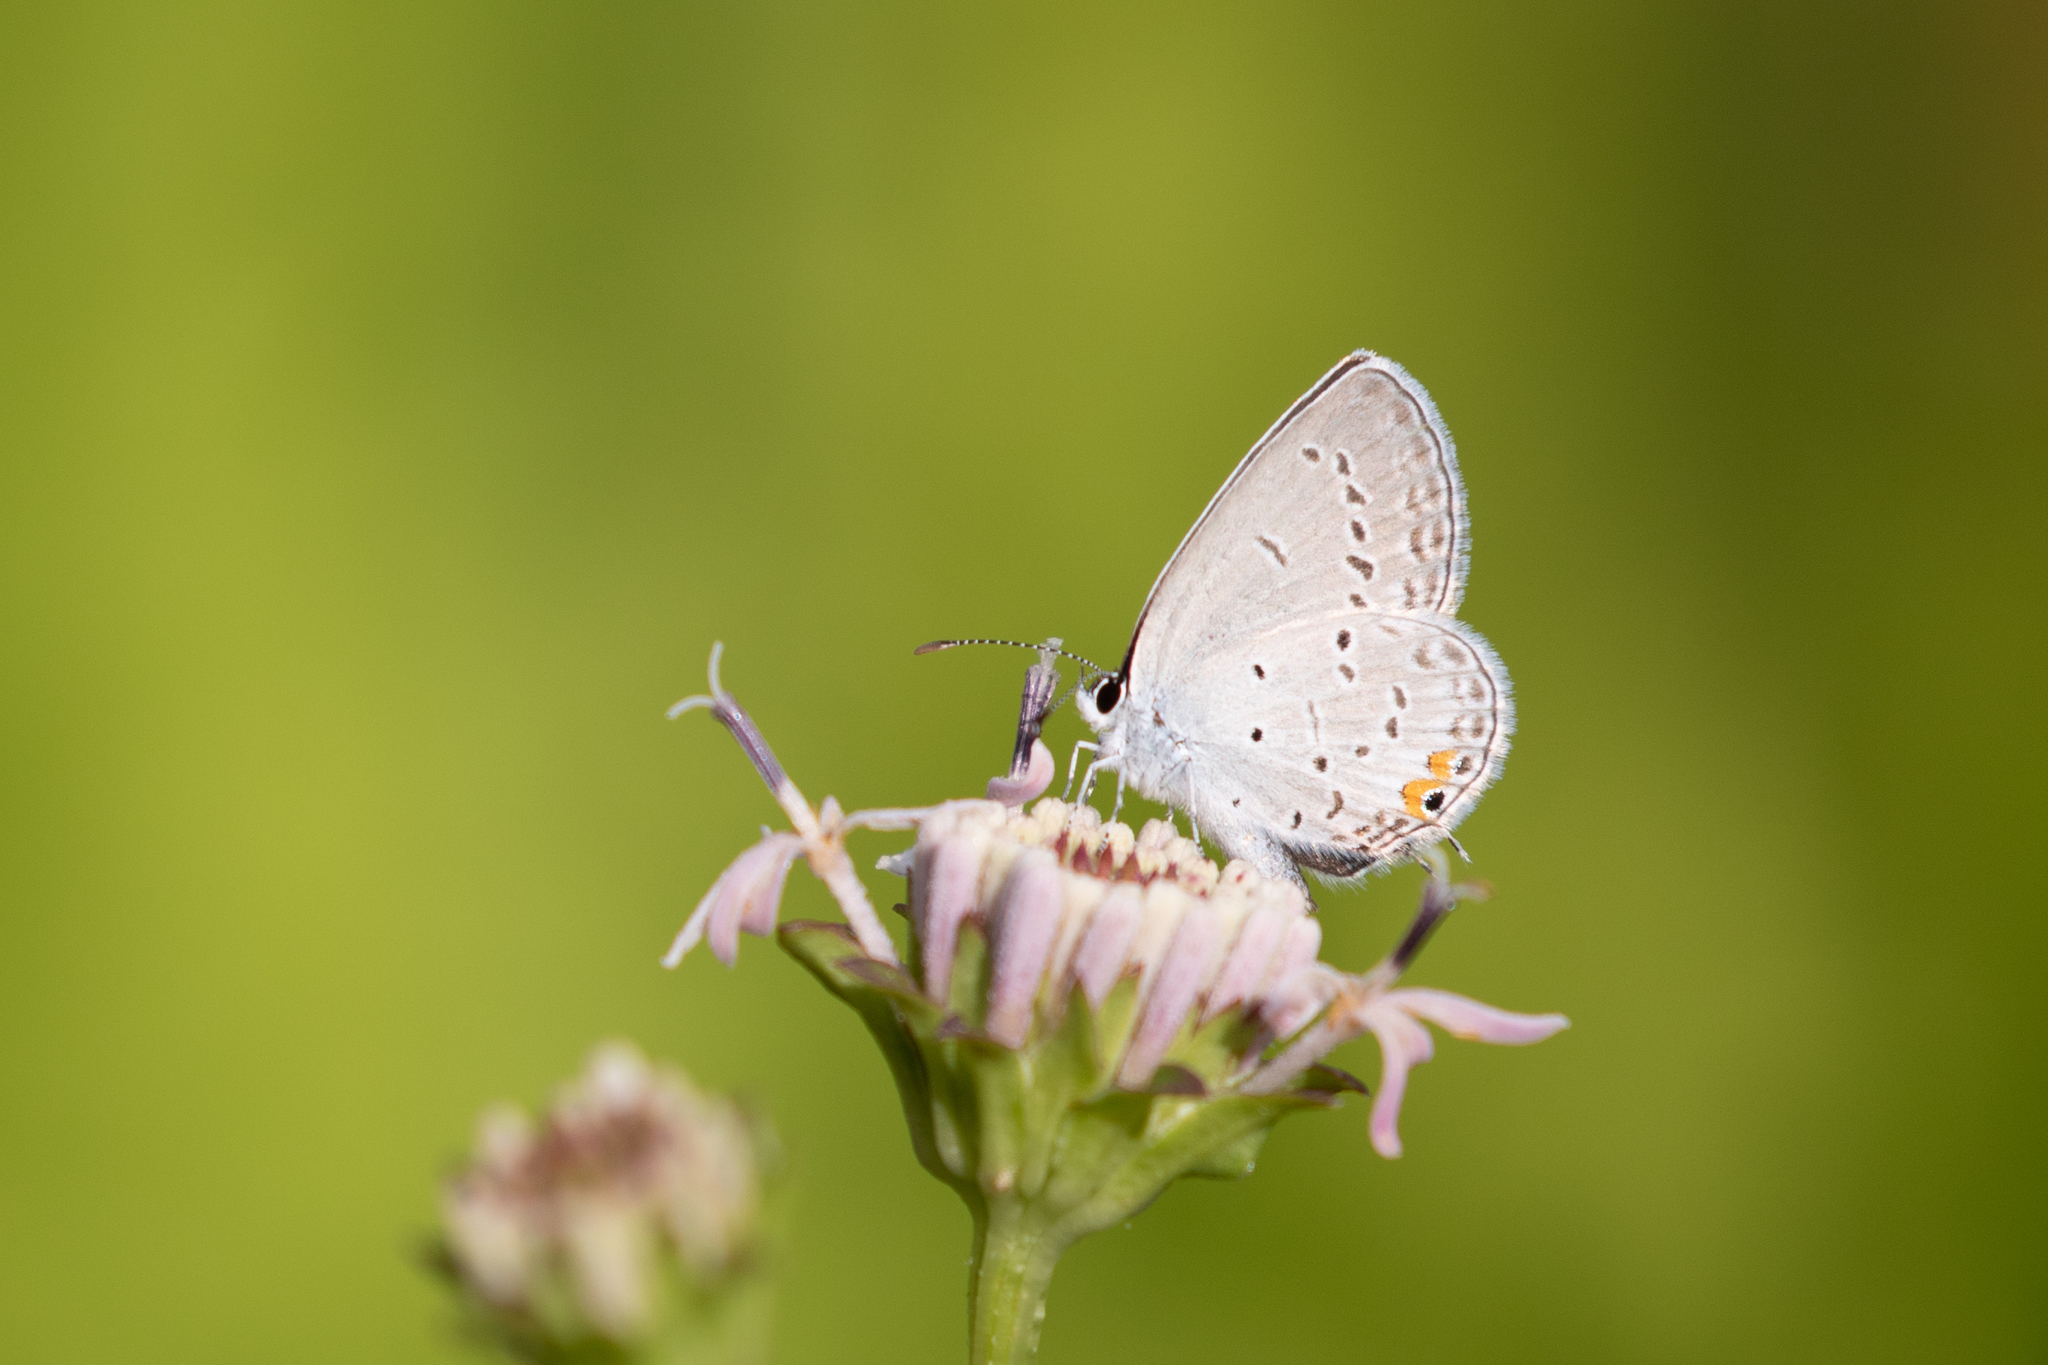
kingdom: Animalia
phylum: Arthropoda
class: Insecta
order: Lepidoptera
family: Lycaenidae
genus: Elkalyce
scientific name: Elkalyce comyntas
